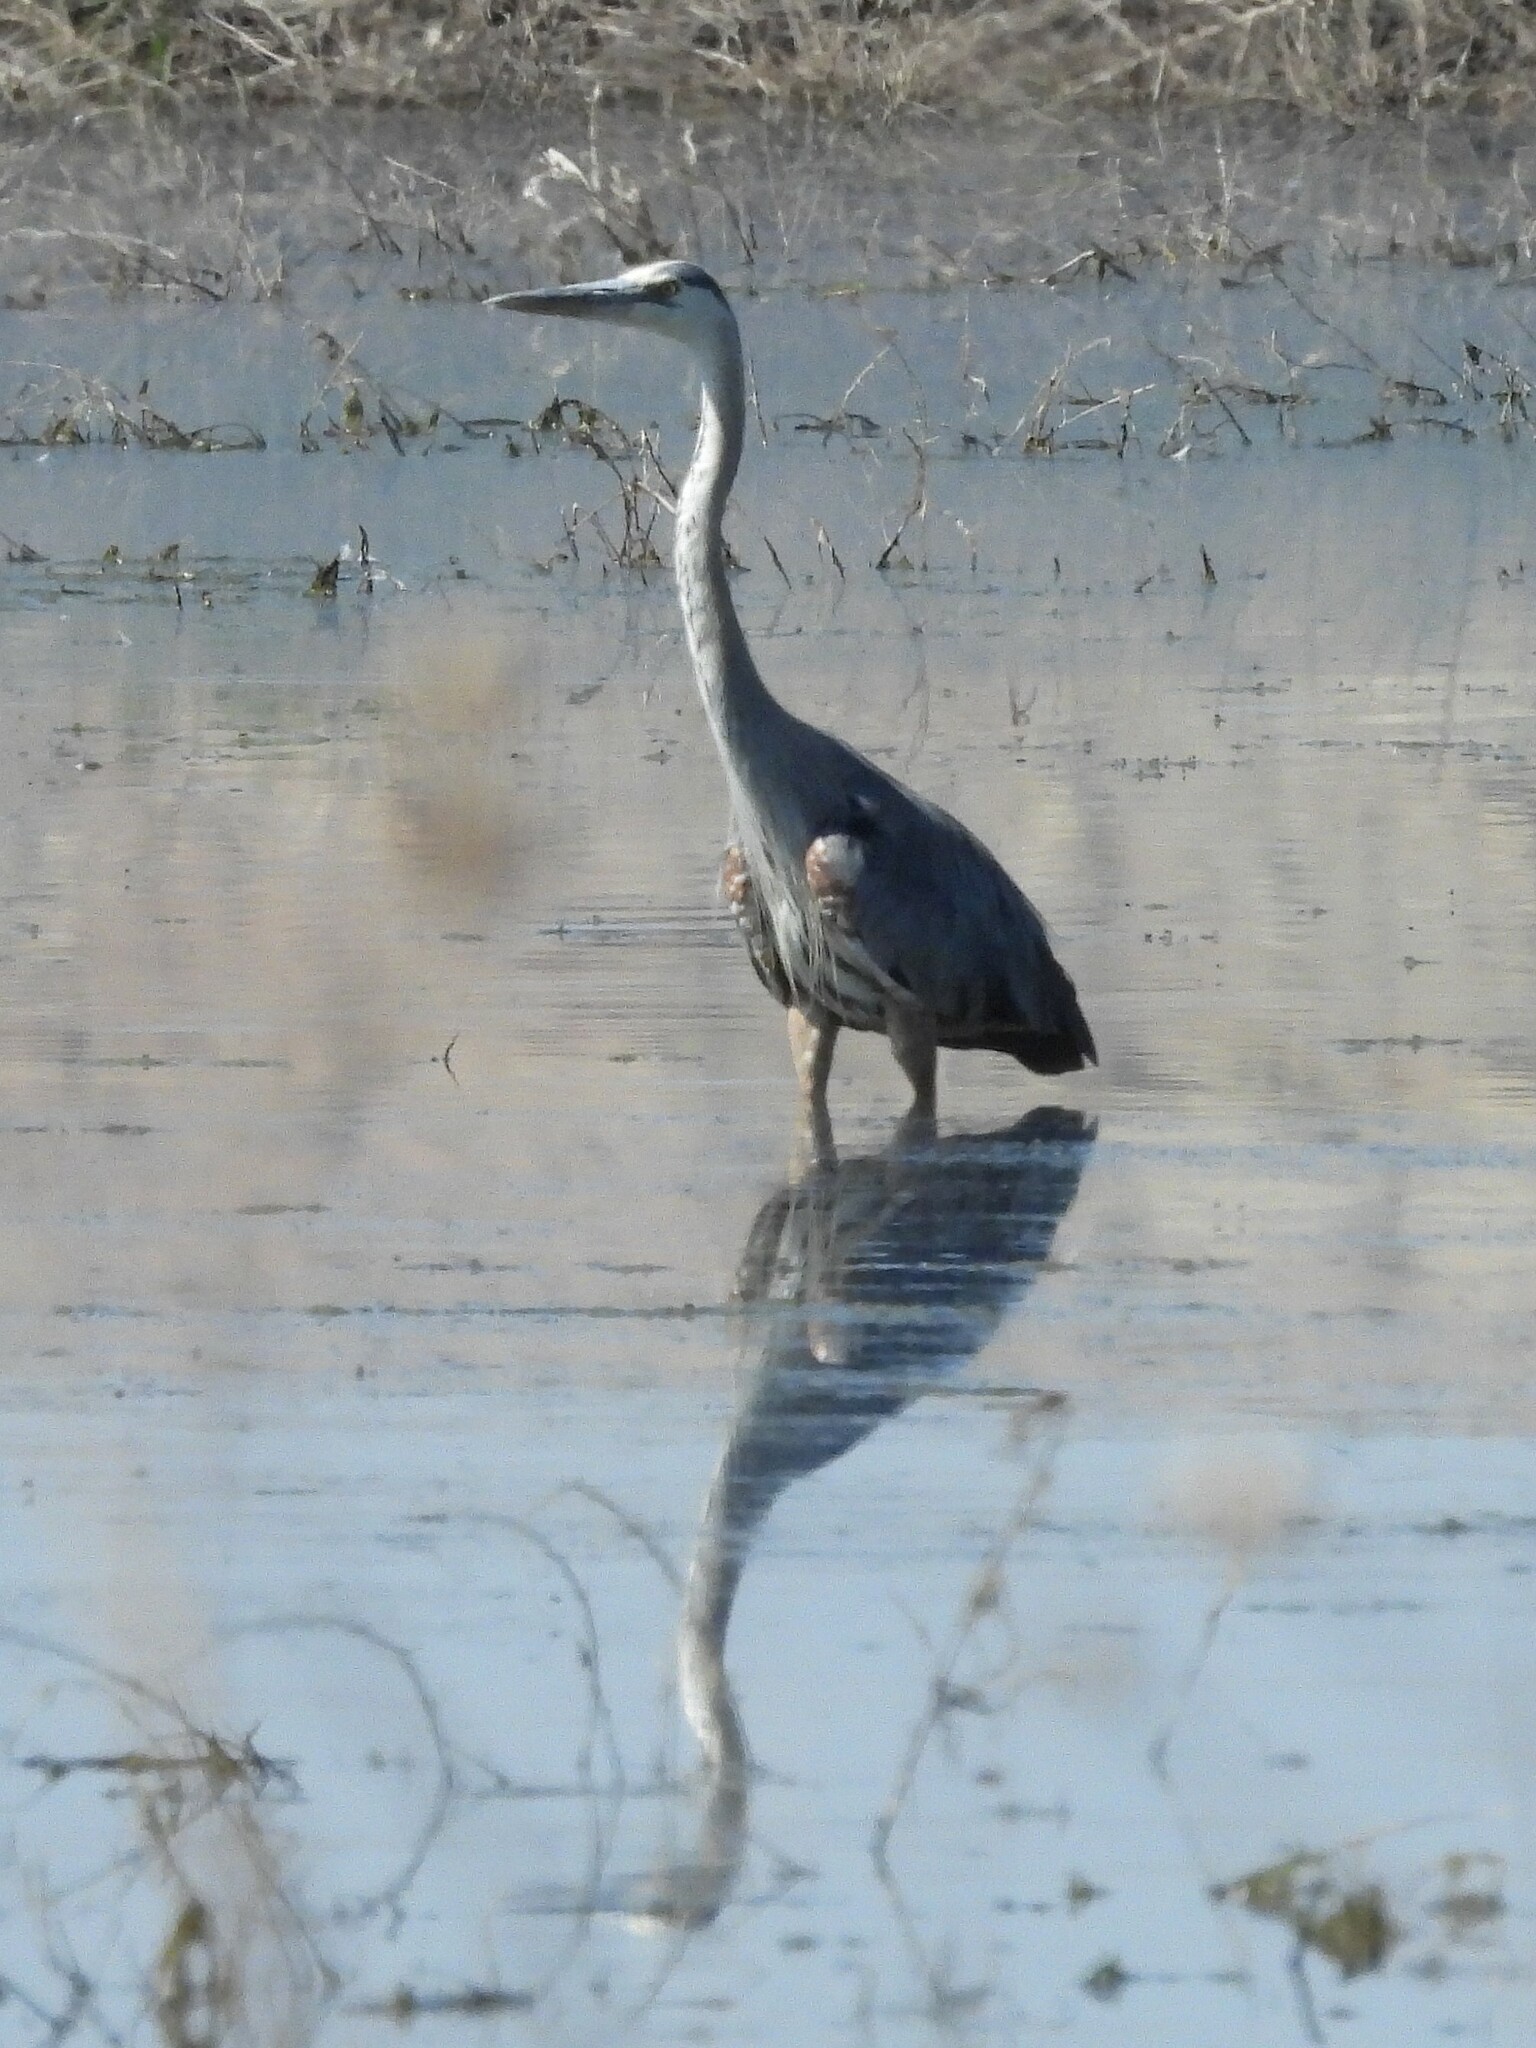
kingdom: Animalia
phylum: Chordata
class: Aves
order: Pelecaniformes
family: Ardeidae
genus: Ardea
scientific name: Ardea herodias
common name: Great blue heron
